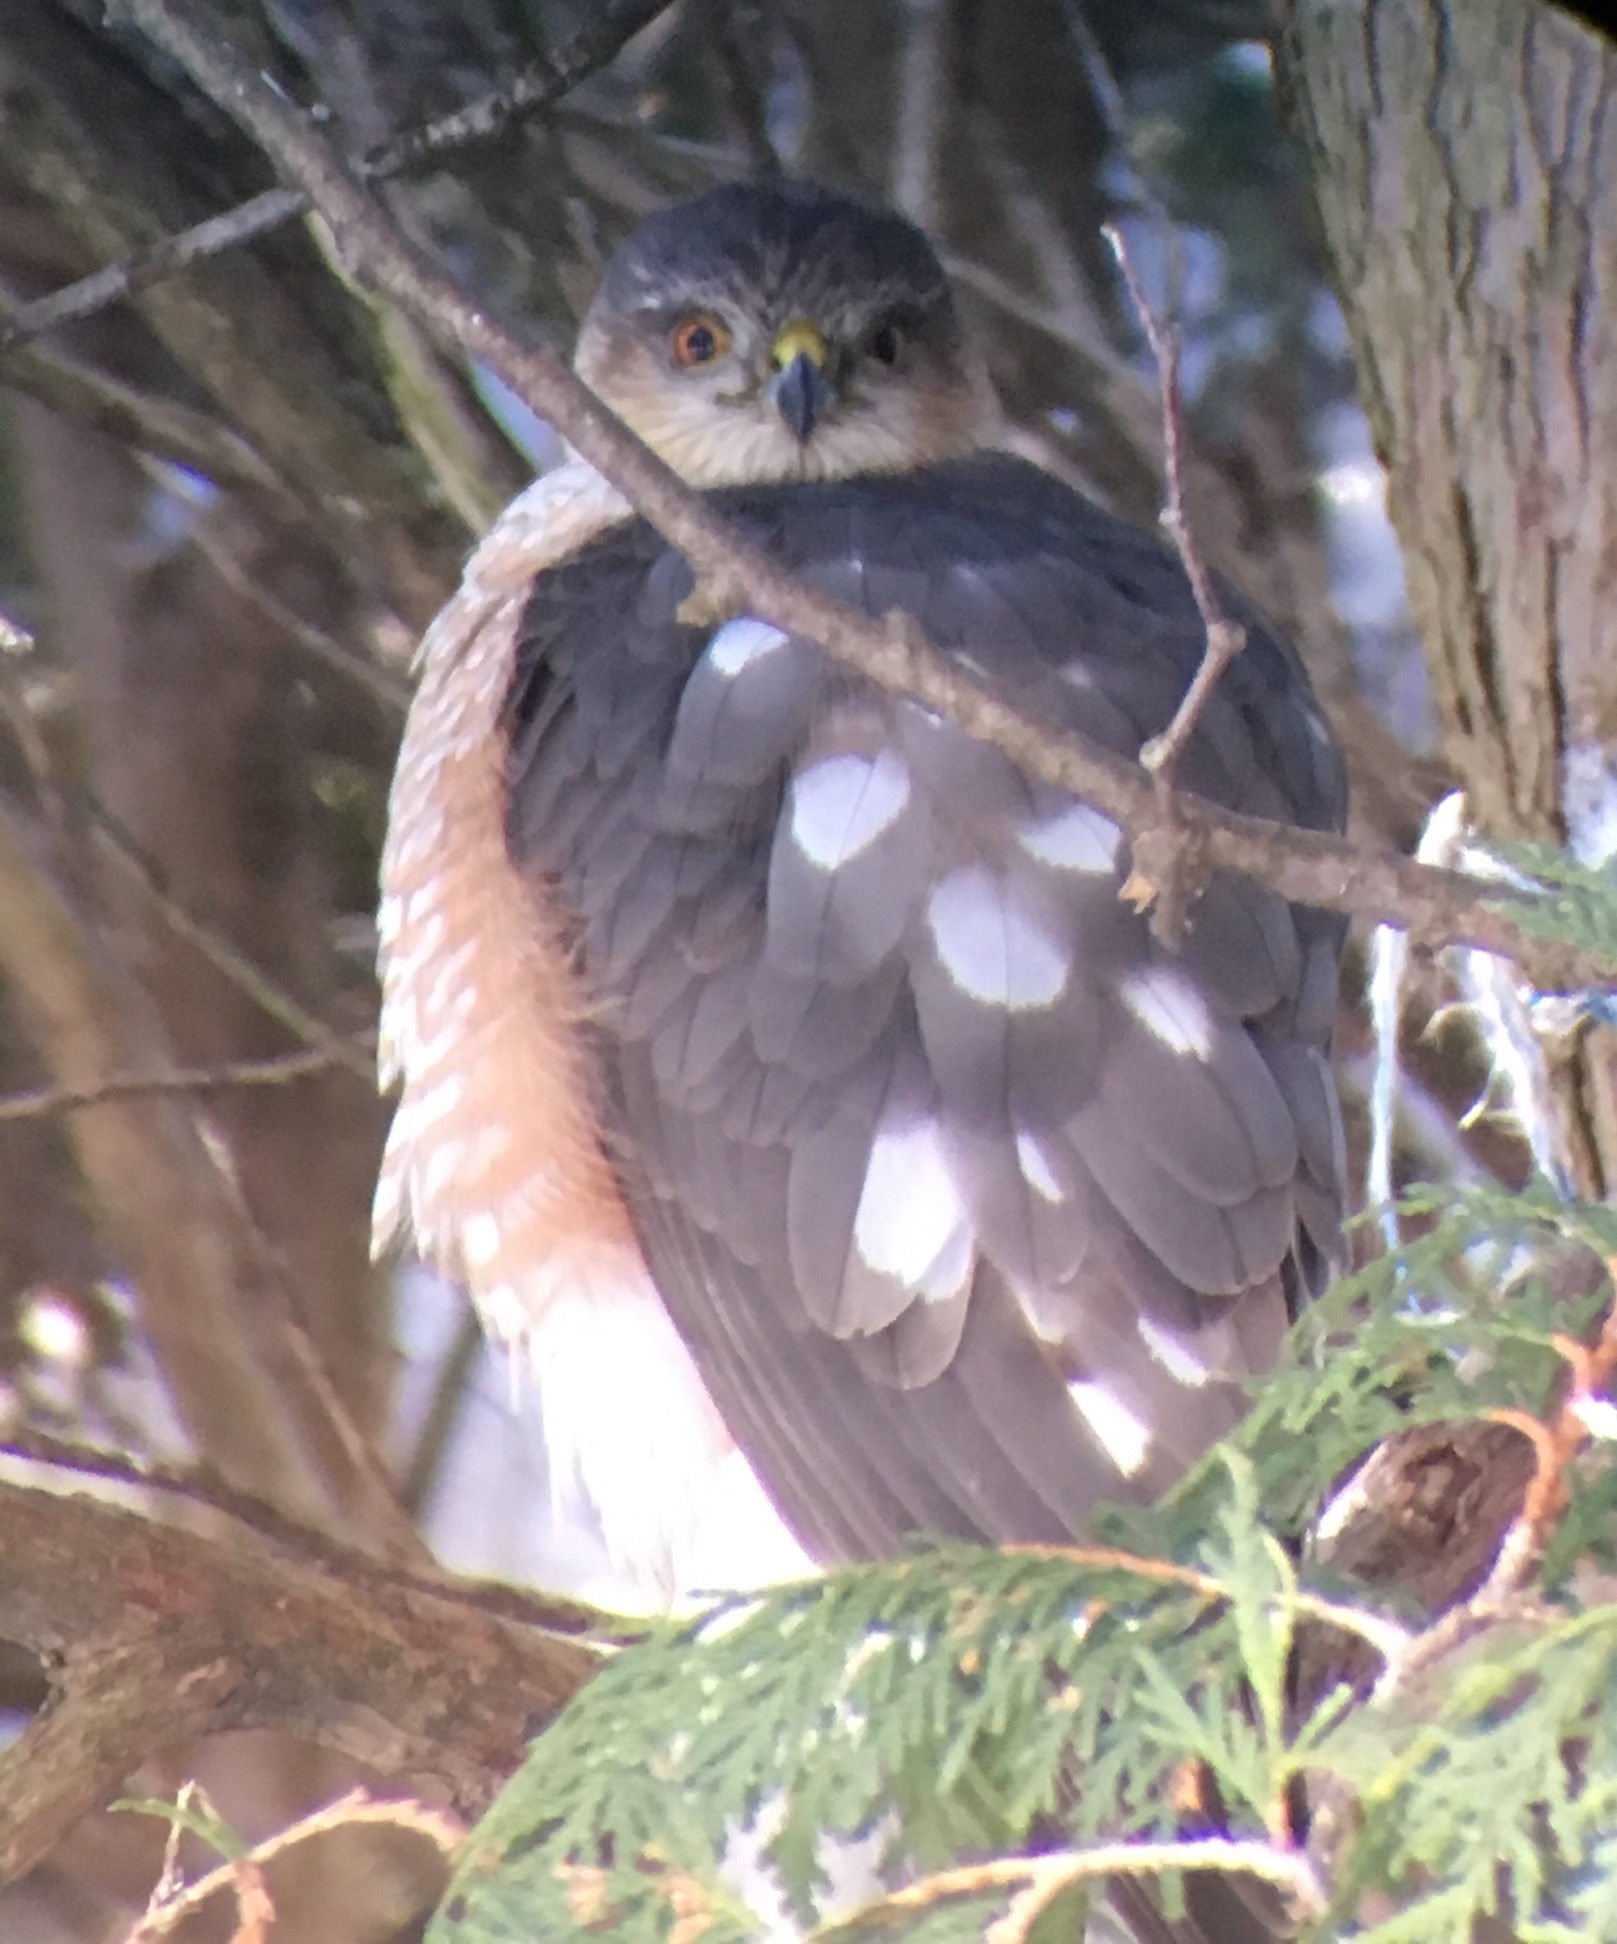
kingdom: Animalia
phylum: Chordata
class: Aves
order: Accipitriformes
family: Accipitridae
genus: Accipiter
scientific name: Accipiter striatus
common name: Sharp-shinned hawk
